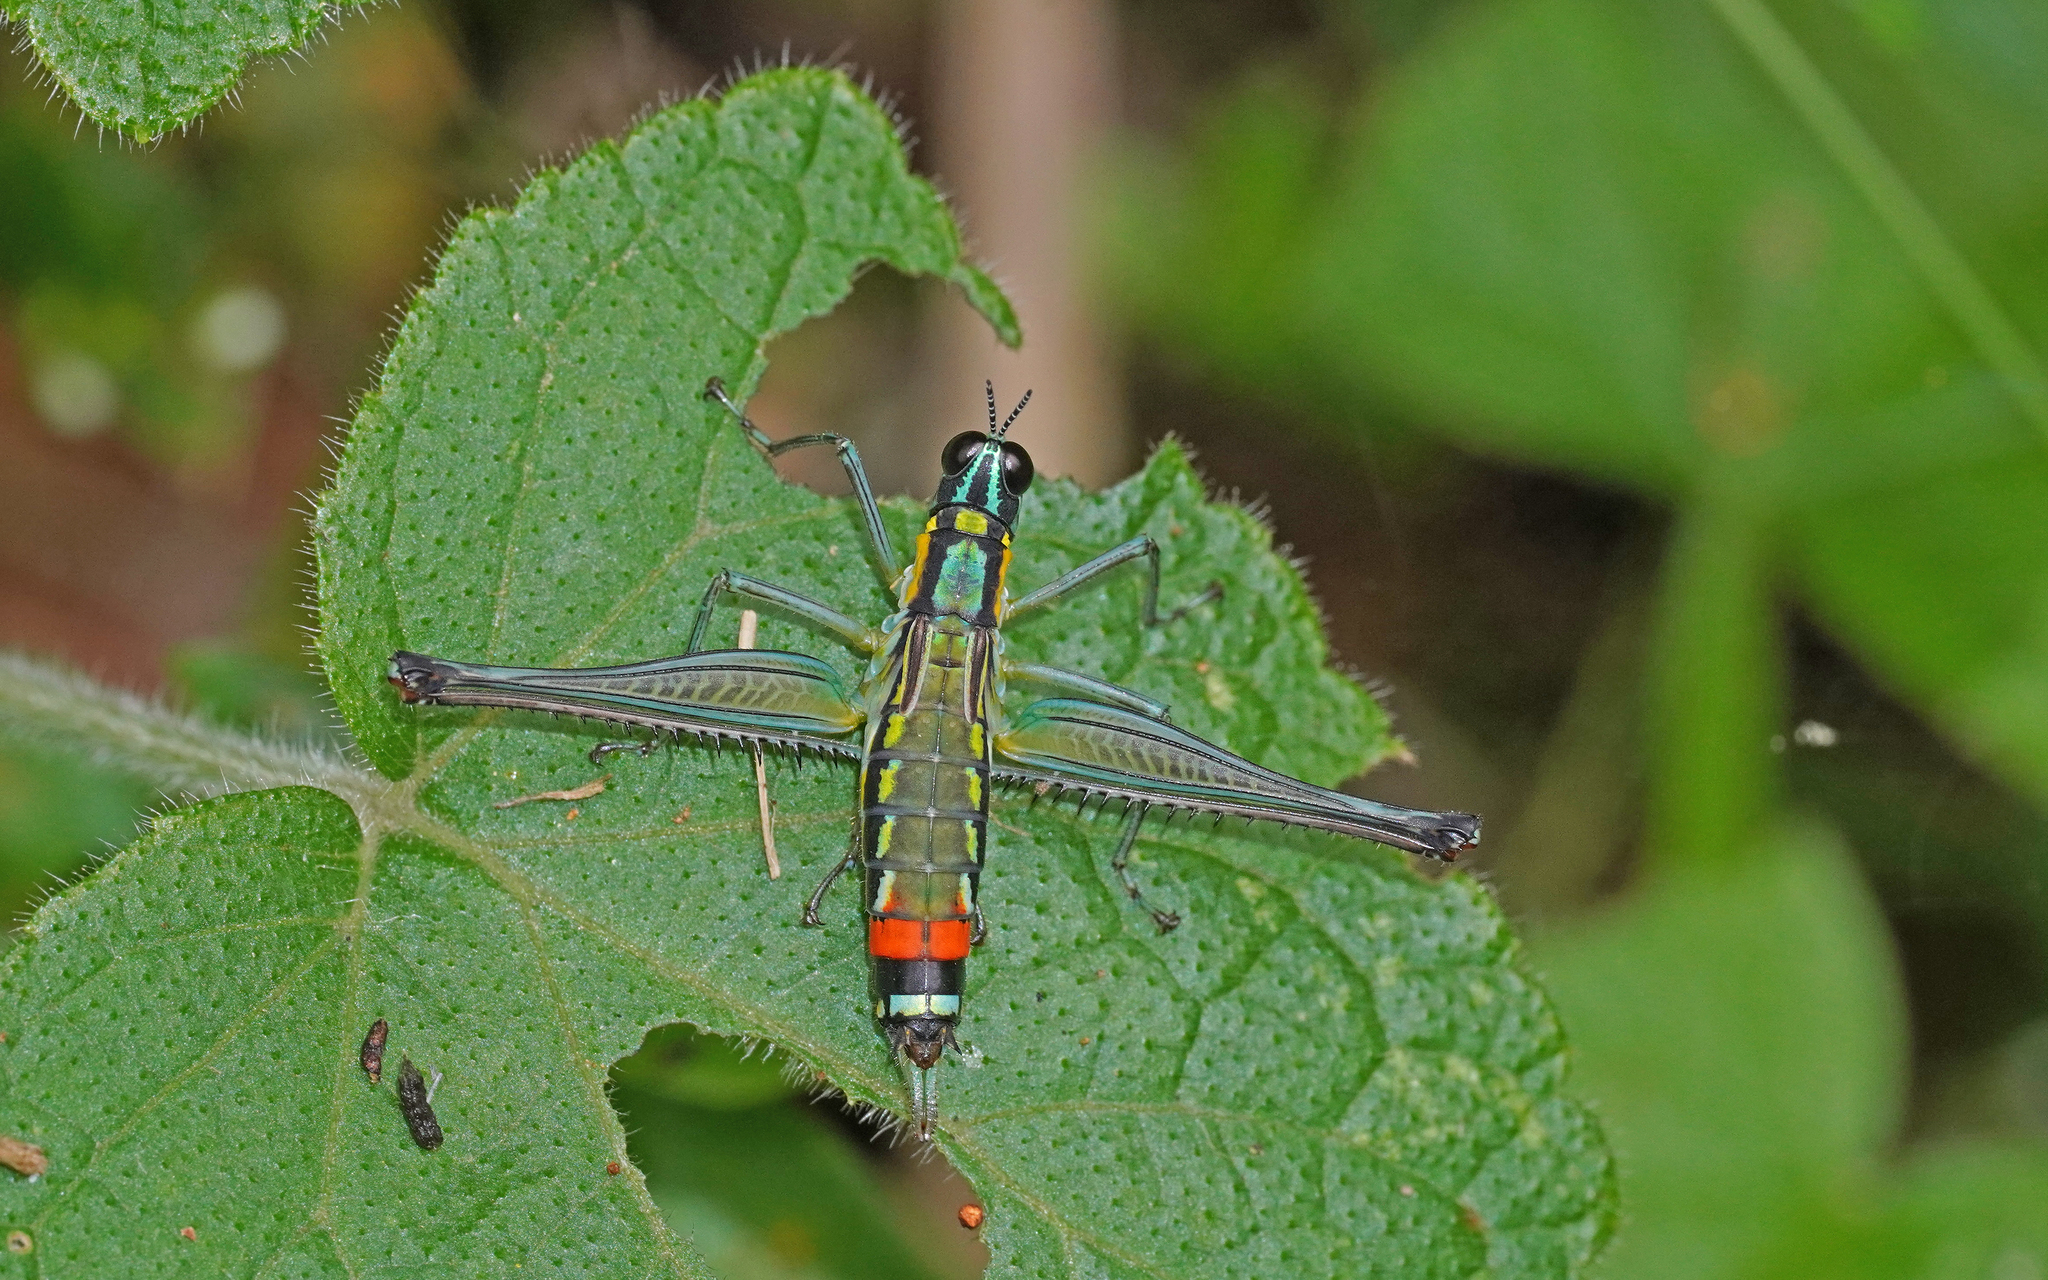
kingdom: Animalia
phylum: Arthropoda
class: Insecta
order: Orthoptera
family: Eumastacidae
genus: Paramastax
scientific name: Paramastax poecilosoma
